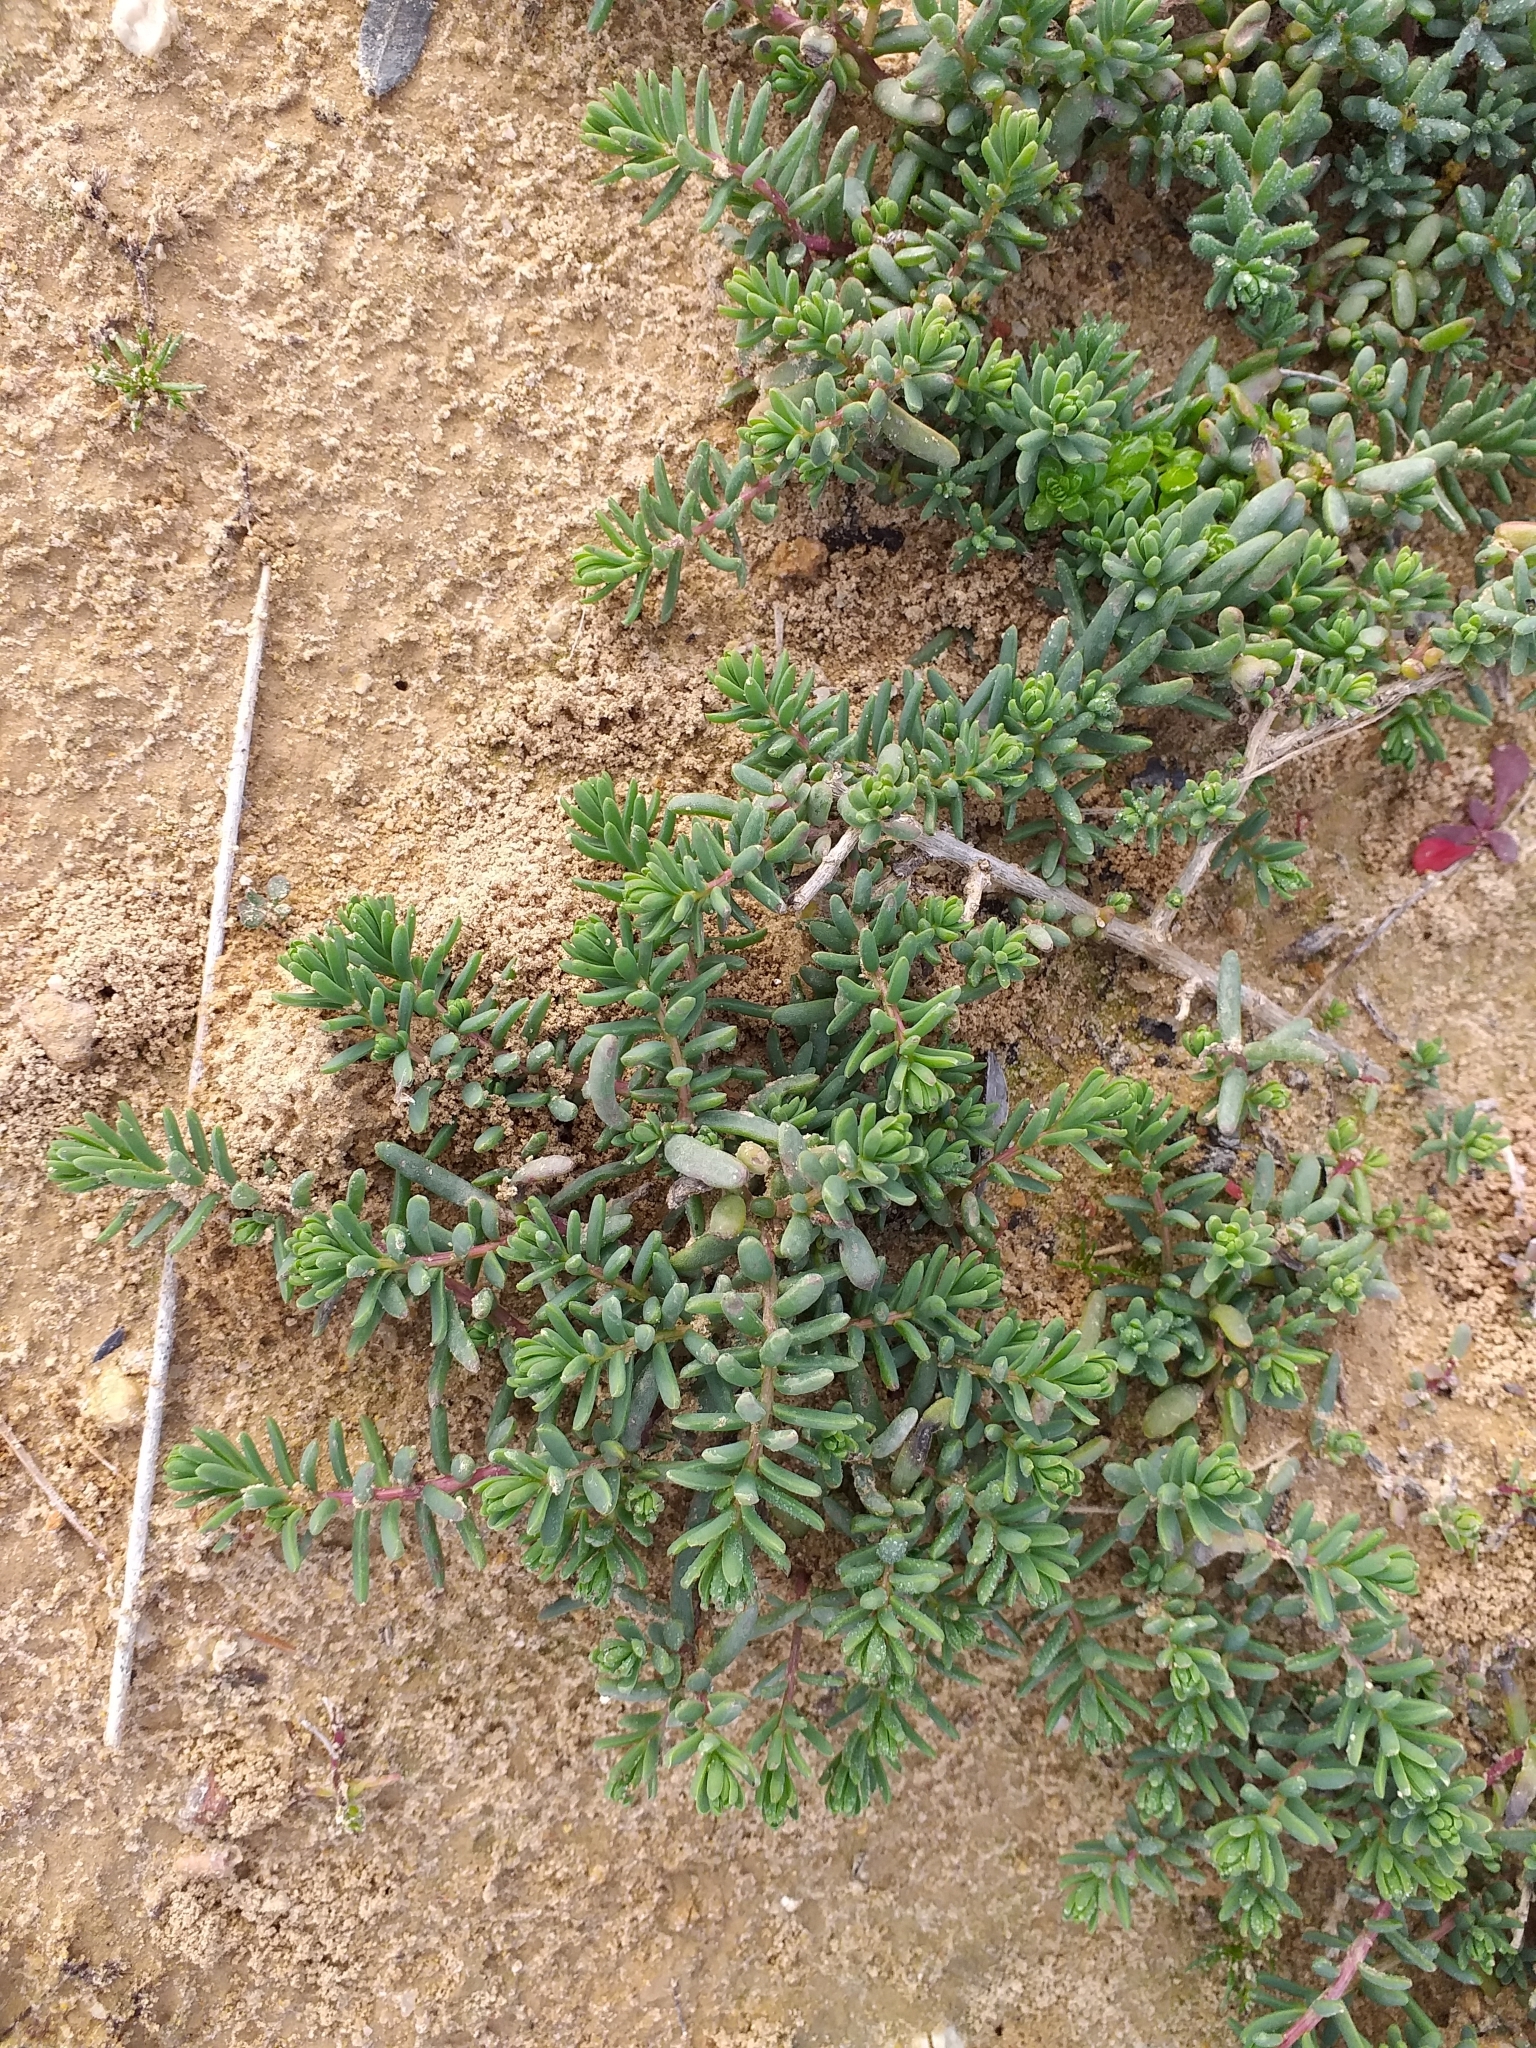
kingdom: Plantae
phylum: Tracheophyta
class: Magnoliopsida
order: Caryophyllales
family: Amaranthaceae
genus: Suaeda
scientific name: Suaeda vera
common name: Shrubby sea-blite
